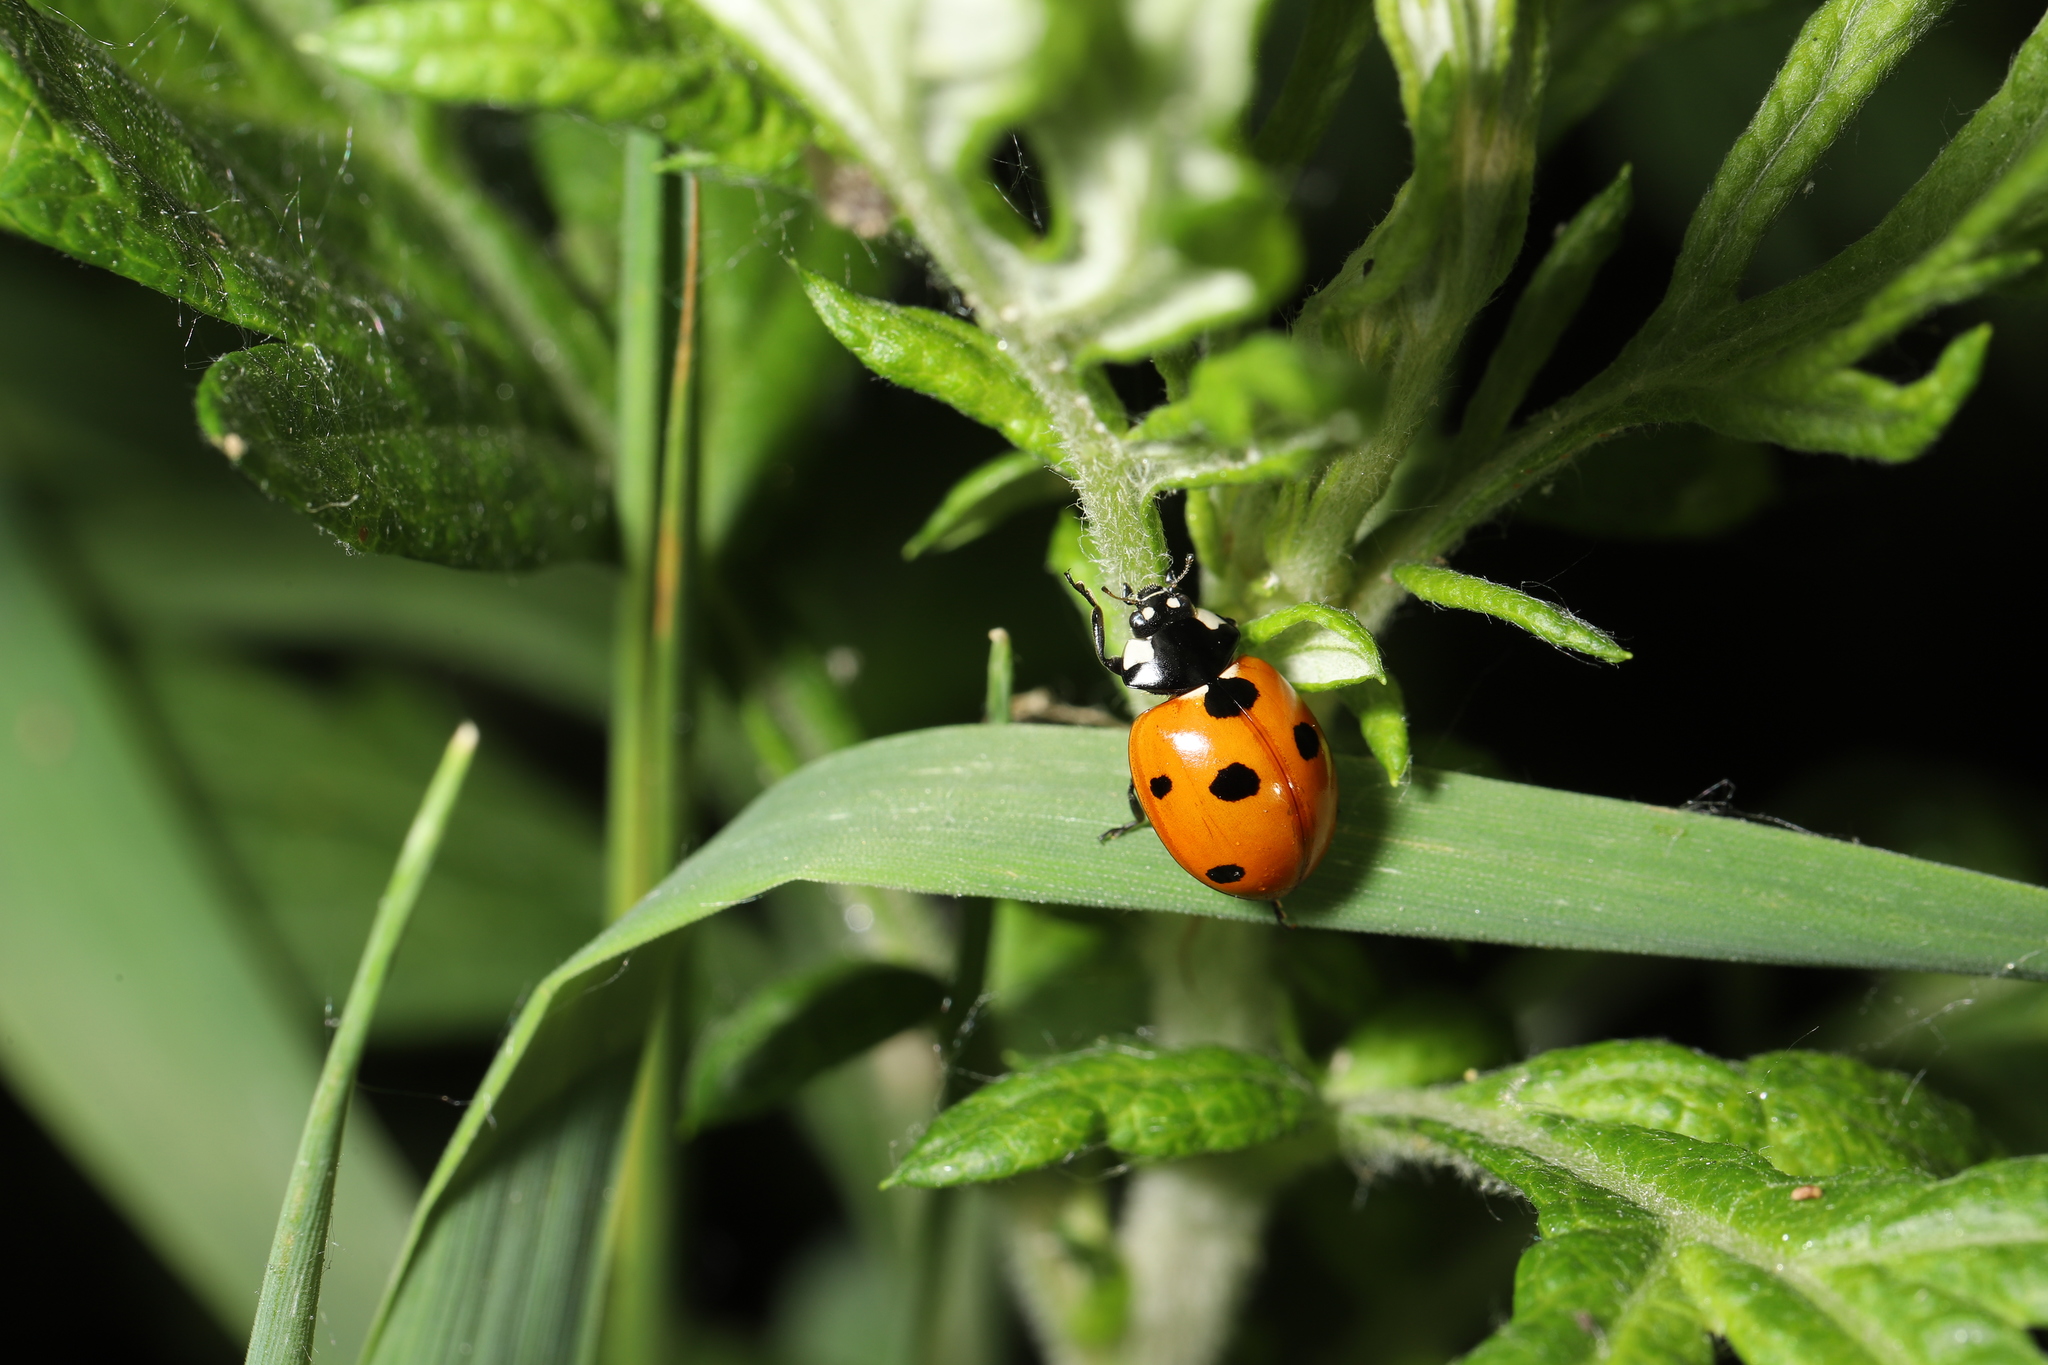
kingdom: Animalia
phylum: Arthropoda
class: Insecta
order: Coleoptera
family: Coccinellidae
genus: Coccinella
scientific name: Coccinella septempunctata
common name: Sevenspotted lady beetle
